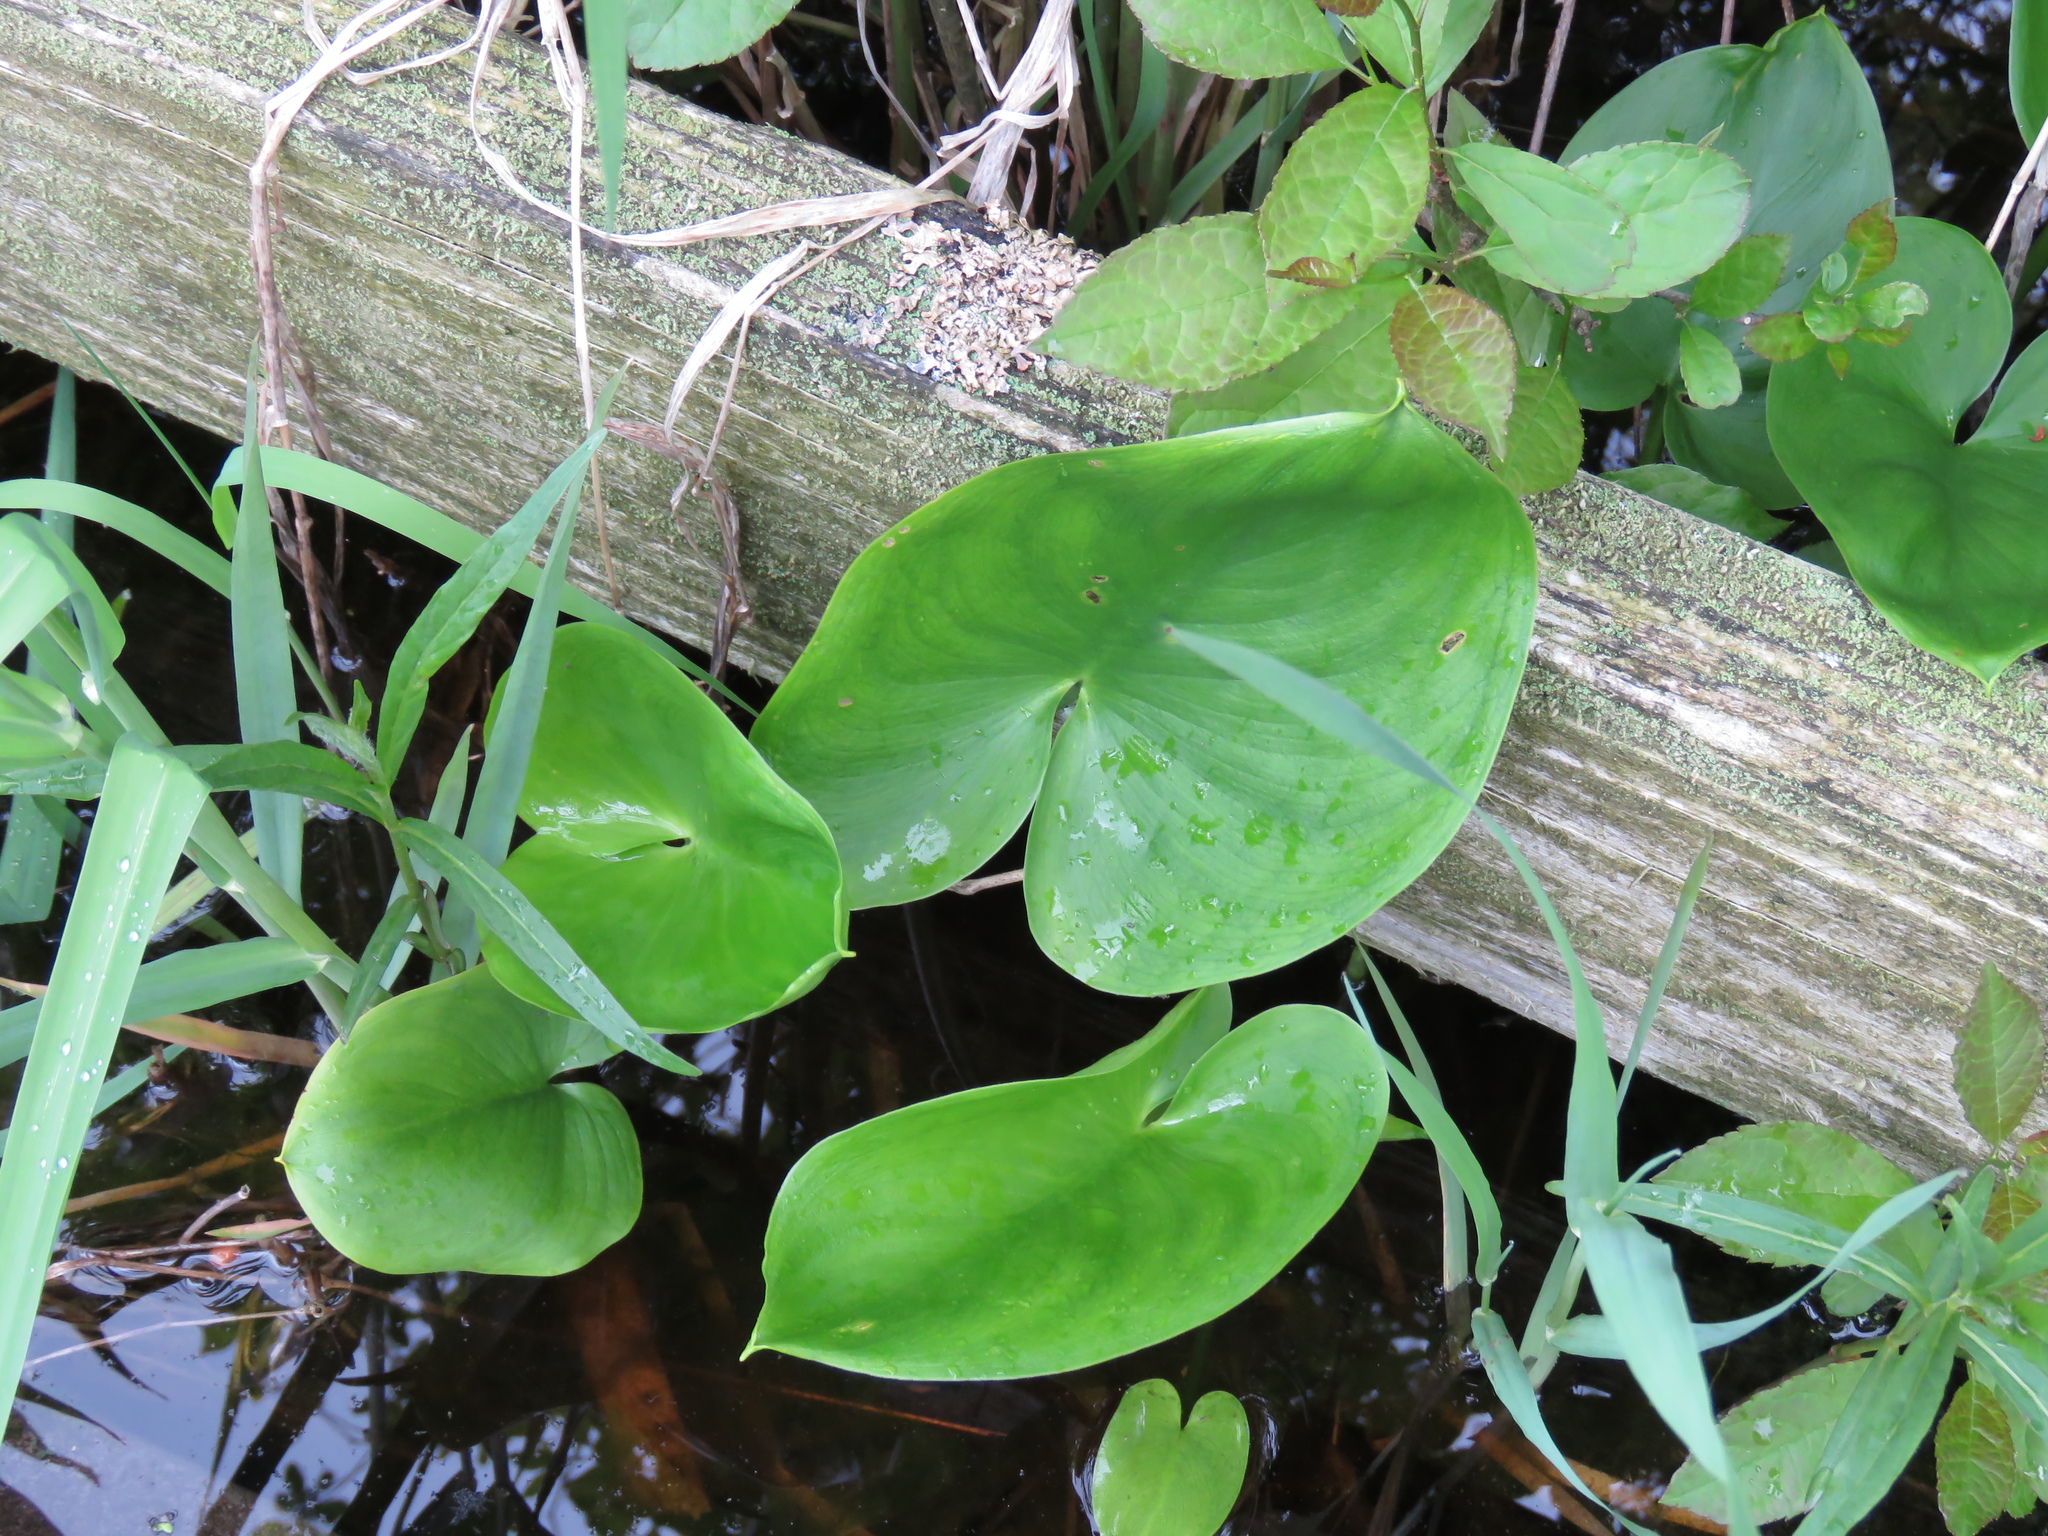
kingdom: Plantae
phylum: Tracheophyta
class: Liliopsida
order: Alismatales
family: Araceae
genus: Calla
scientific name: Calla palustris
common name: Bog arum
